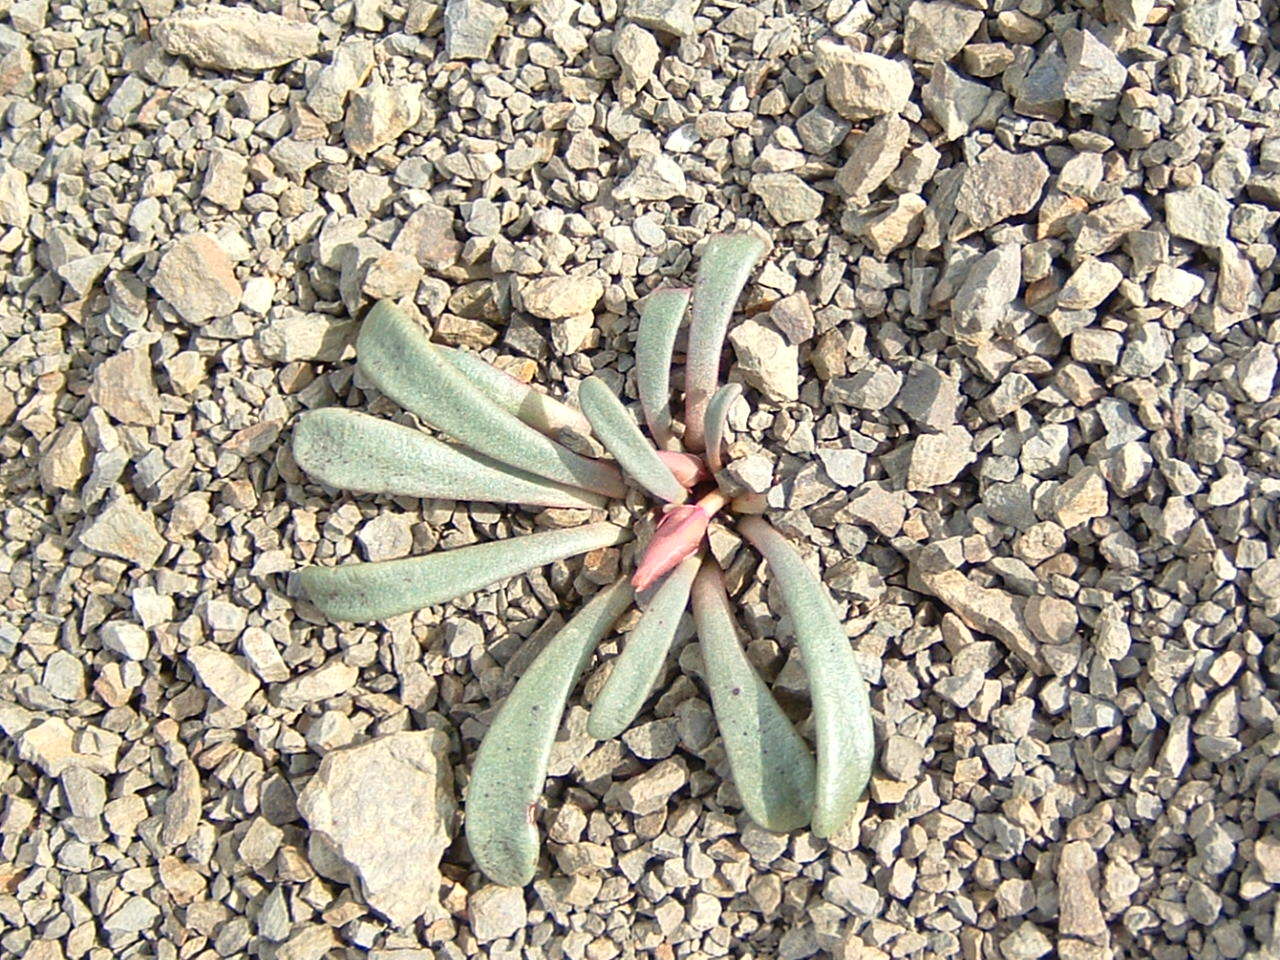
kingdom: Plantae
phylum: Tracheophyta
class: Magnoliopsida
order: Caryophyllales
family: Montiaceae
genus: Lewisia
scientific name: Lewisia rediviva
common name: Bitter-root
